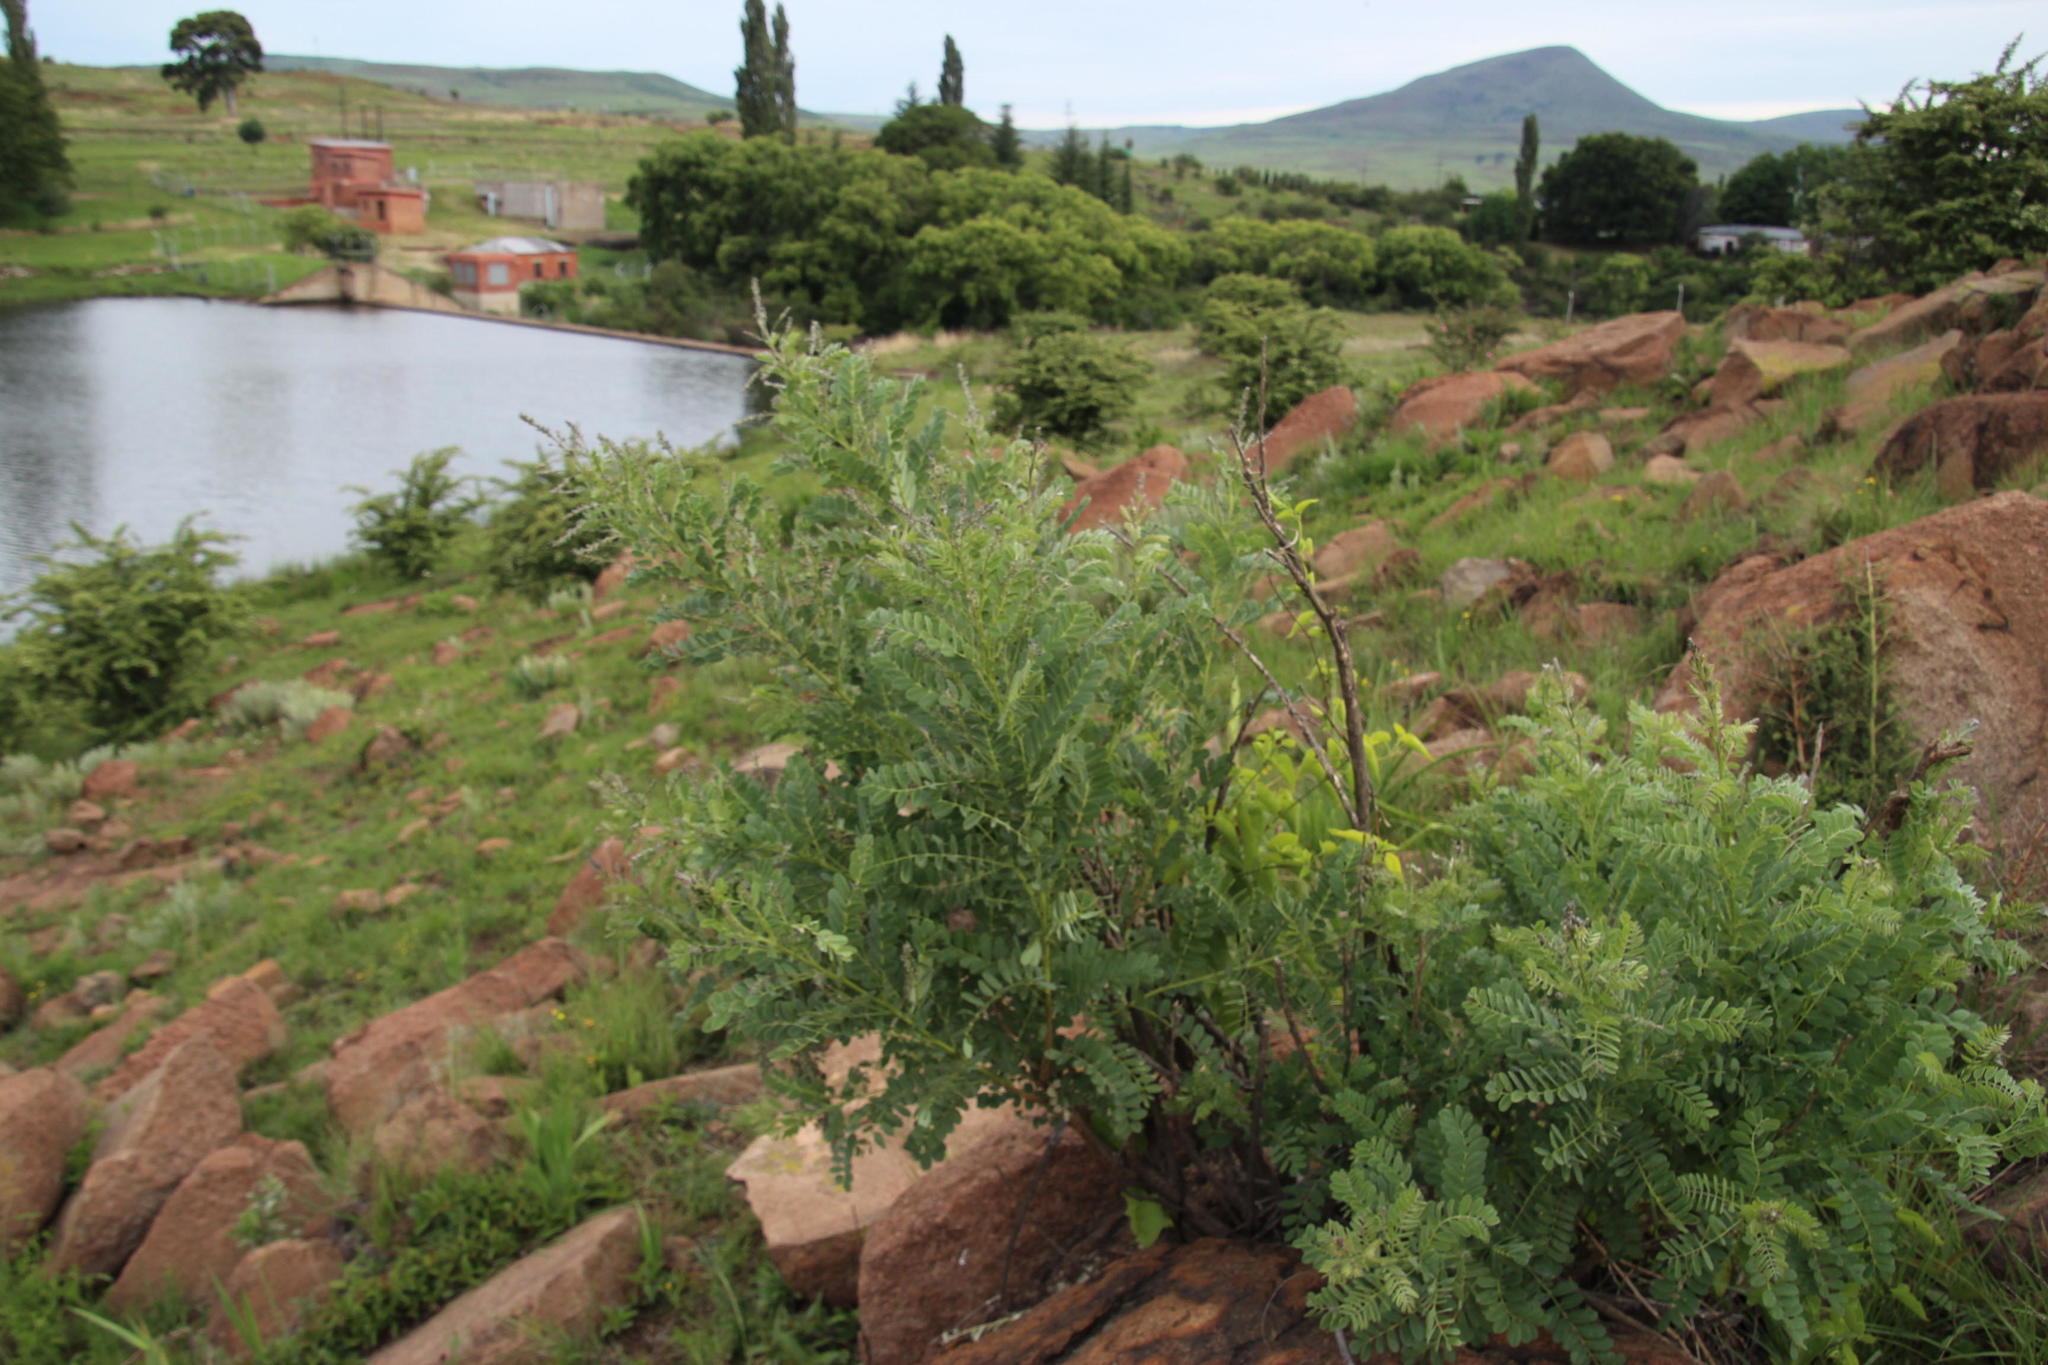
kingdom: Plantae
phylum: Tracheophyta
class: Magnoliopsida
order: Fabales
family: Fabaceae
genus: Calpurnia
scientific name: Calpurnia sericea
